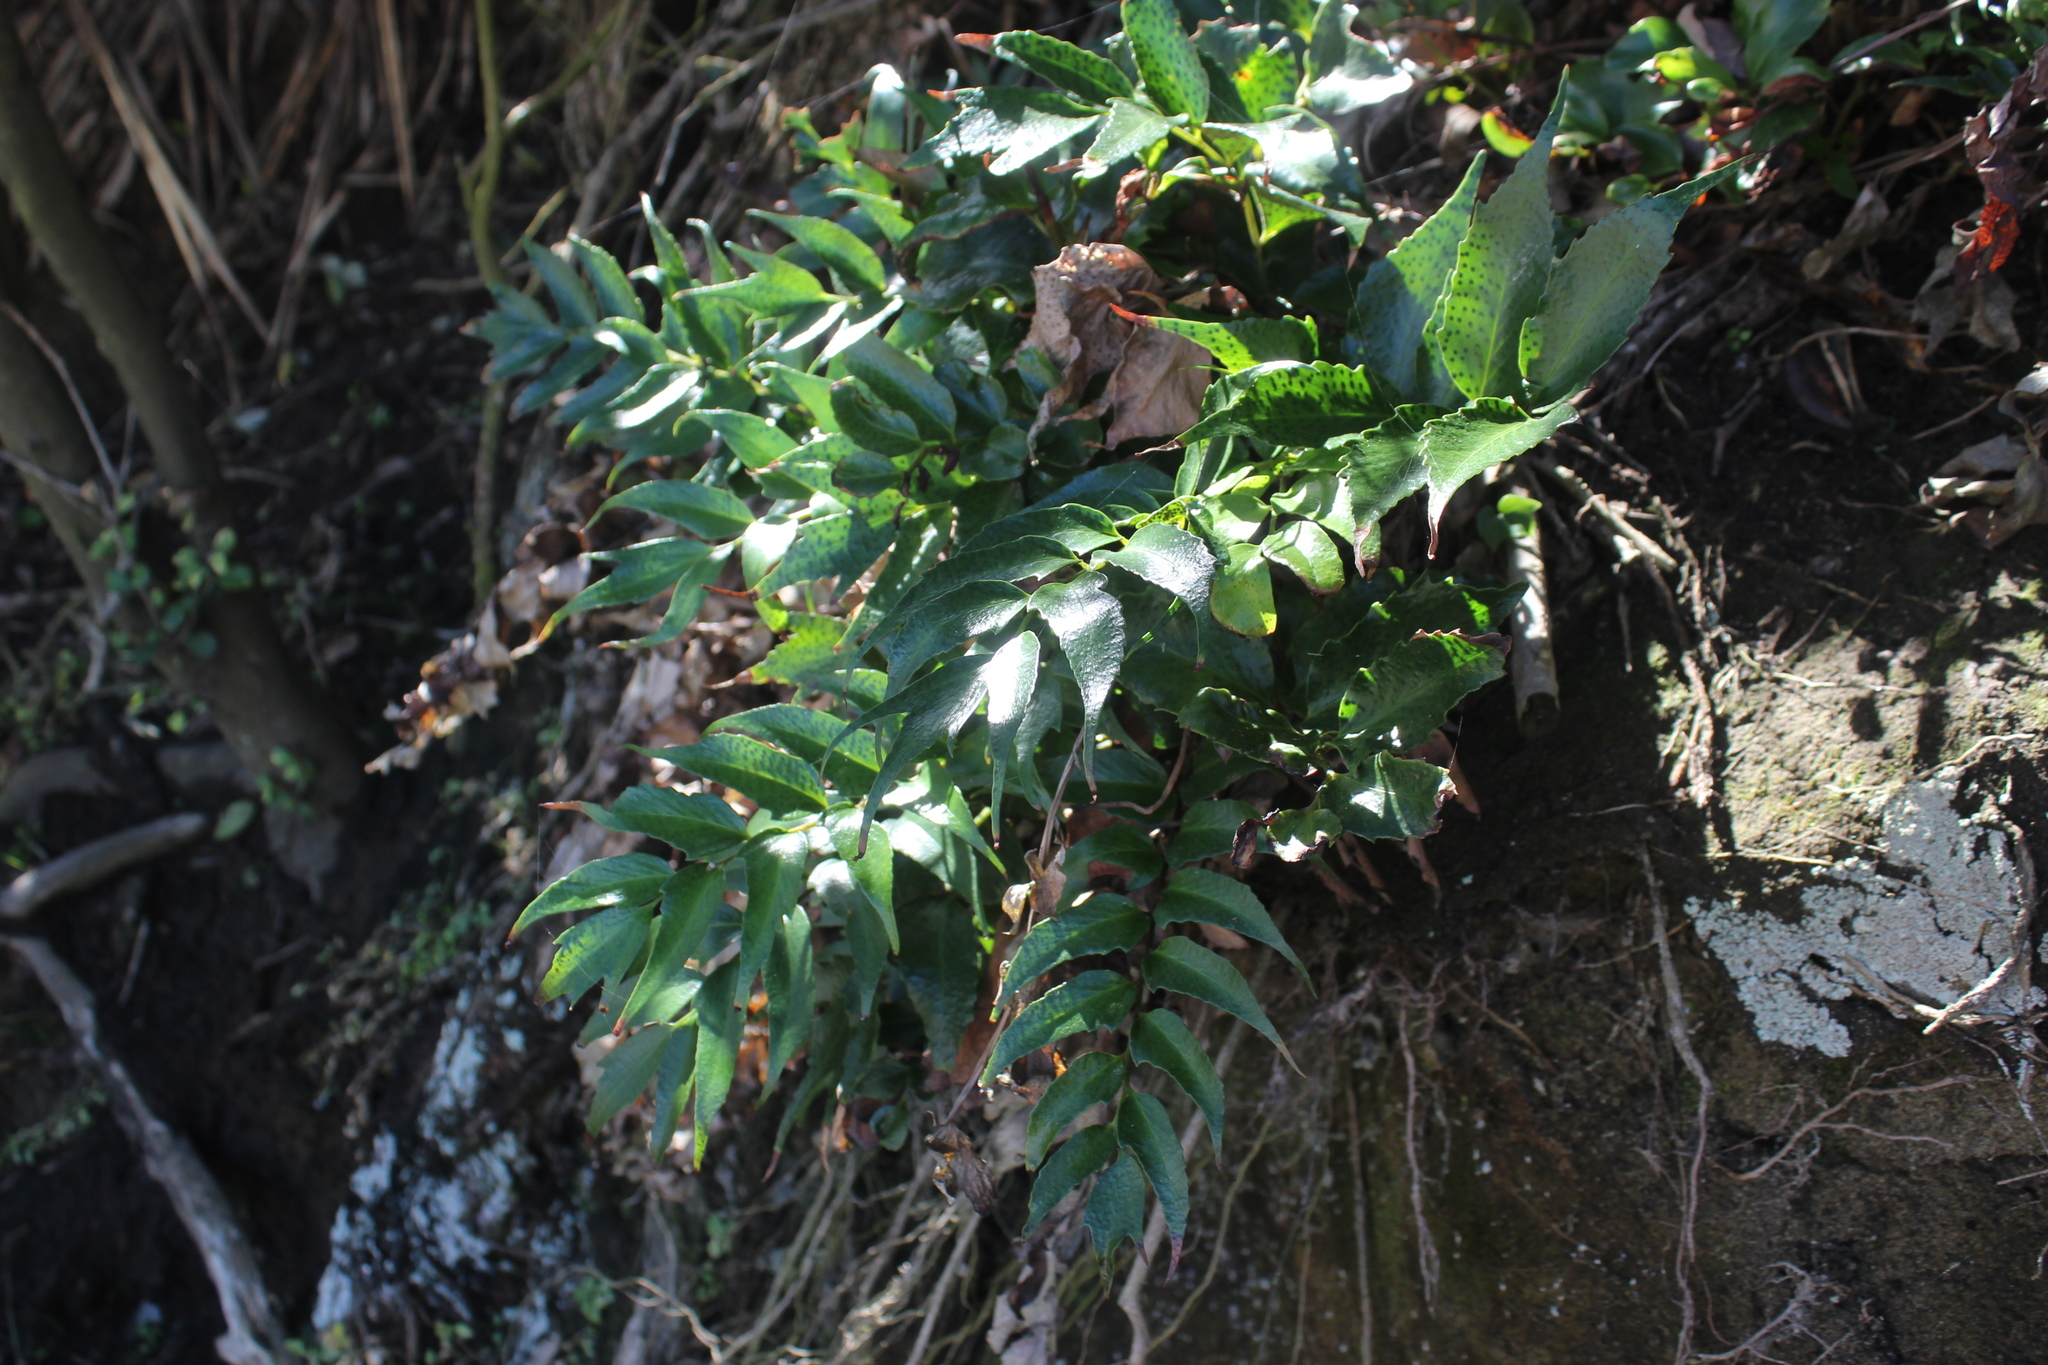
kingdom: Plantae
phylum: Tracheophyta
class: Polypodiopsida
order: Polypodiales
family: Dryopteridaceae
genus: Cyrtomium
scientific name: Cyrtomium falcatum
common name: House holly-fern
